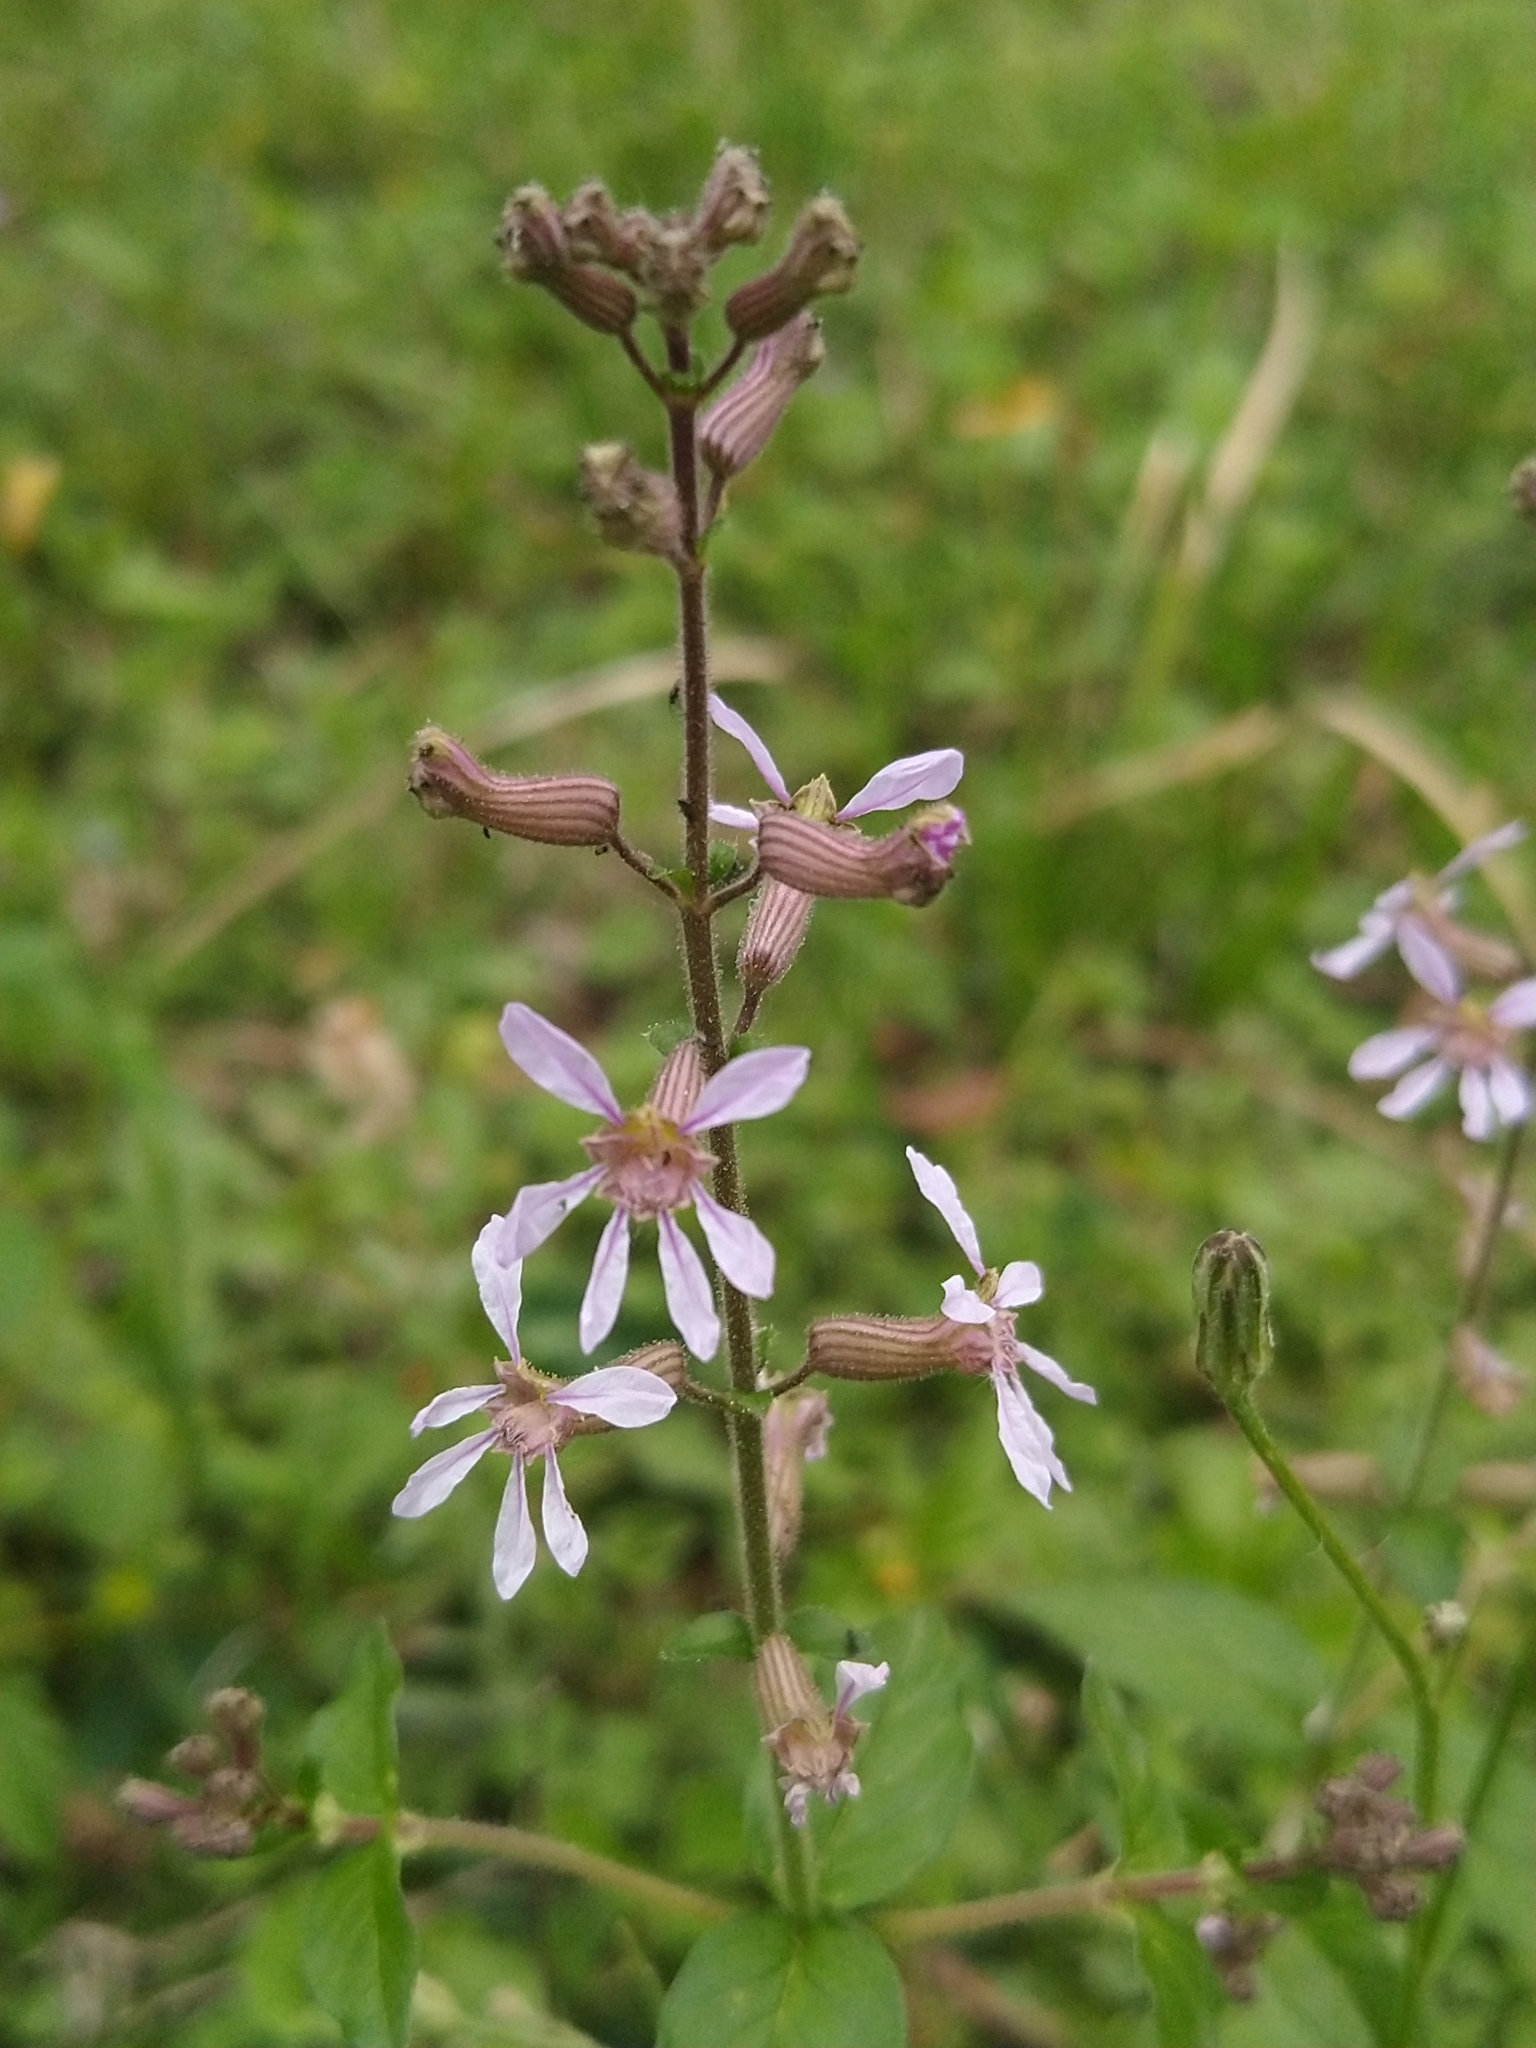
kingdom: Plantae
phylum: Tracheophyta
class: Magnoliopsida
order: Myrtales
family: Lythraceae
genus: Cuphea
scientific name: Cuphea racemosa
